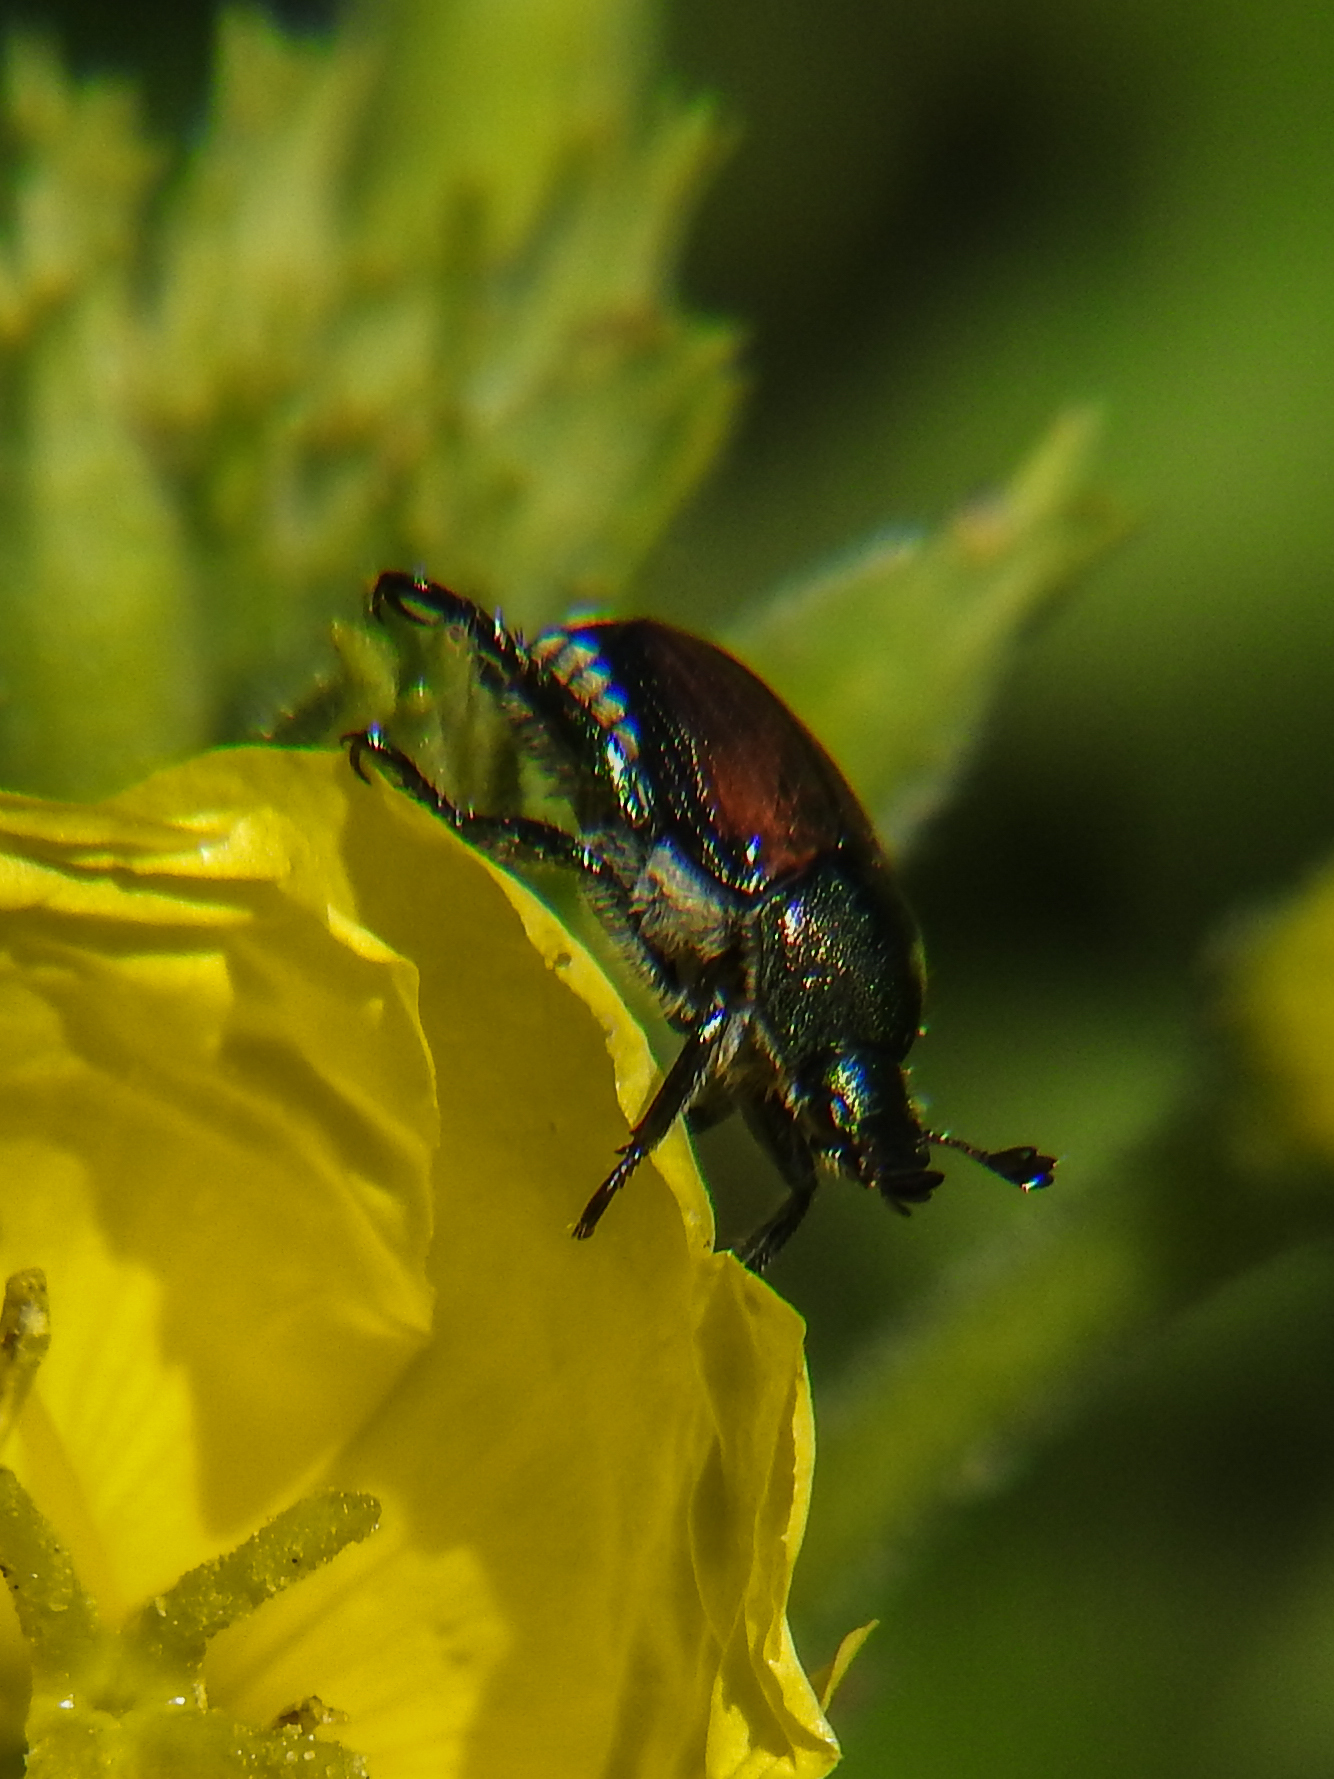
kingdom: Animalia
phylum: Arthropoda
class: Insecta
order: Coleoptera
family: Scarabaeidae
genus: Popillia
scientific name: Popillia japonica
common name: Japanese beetle
